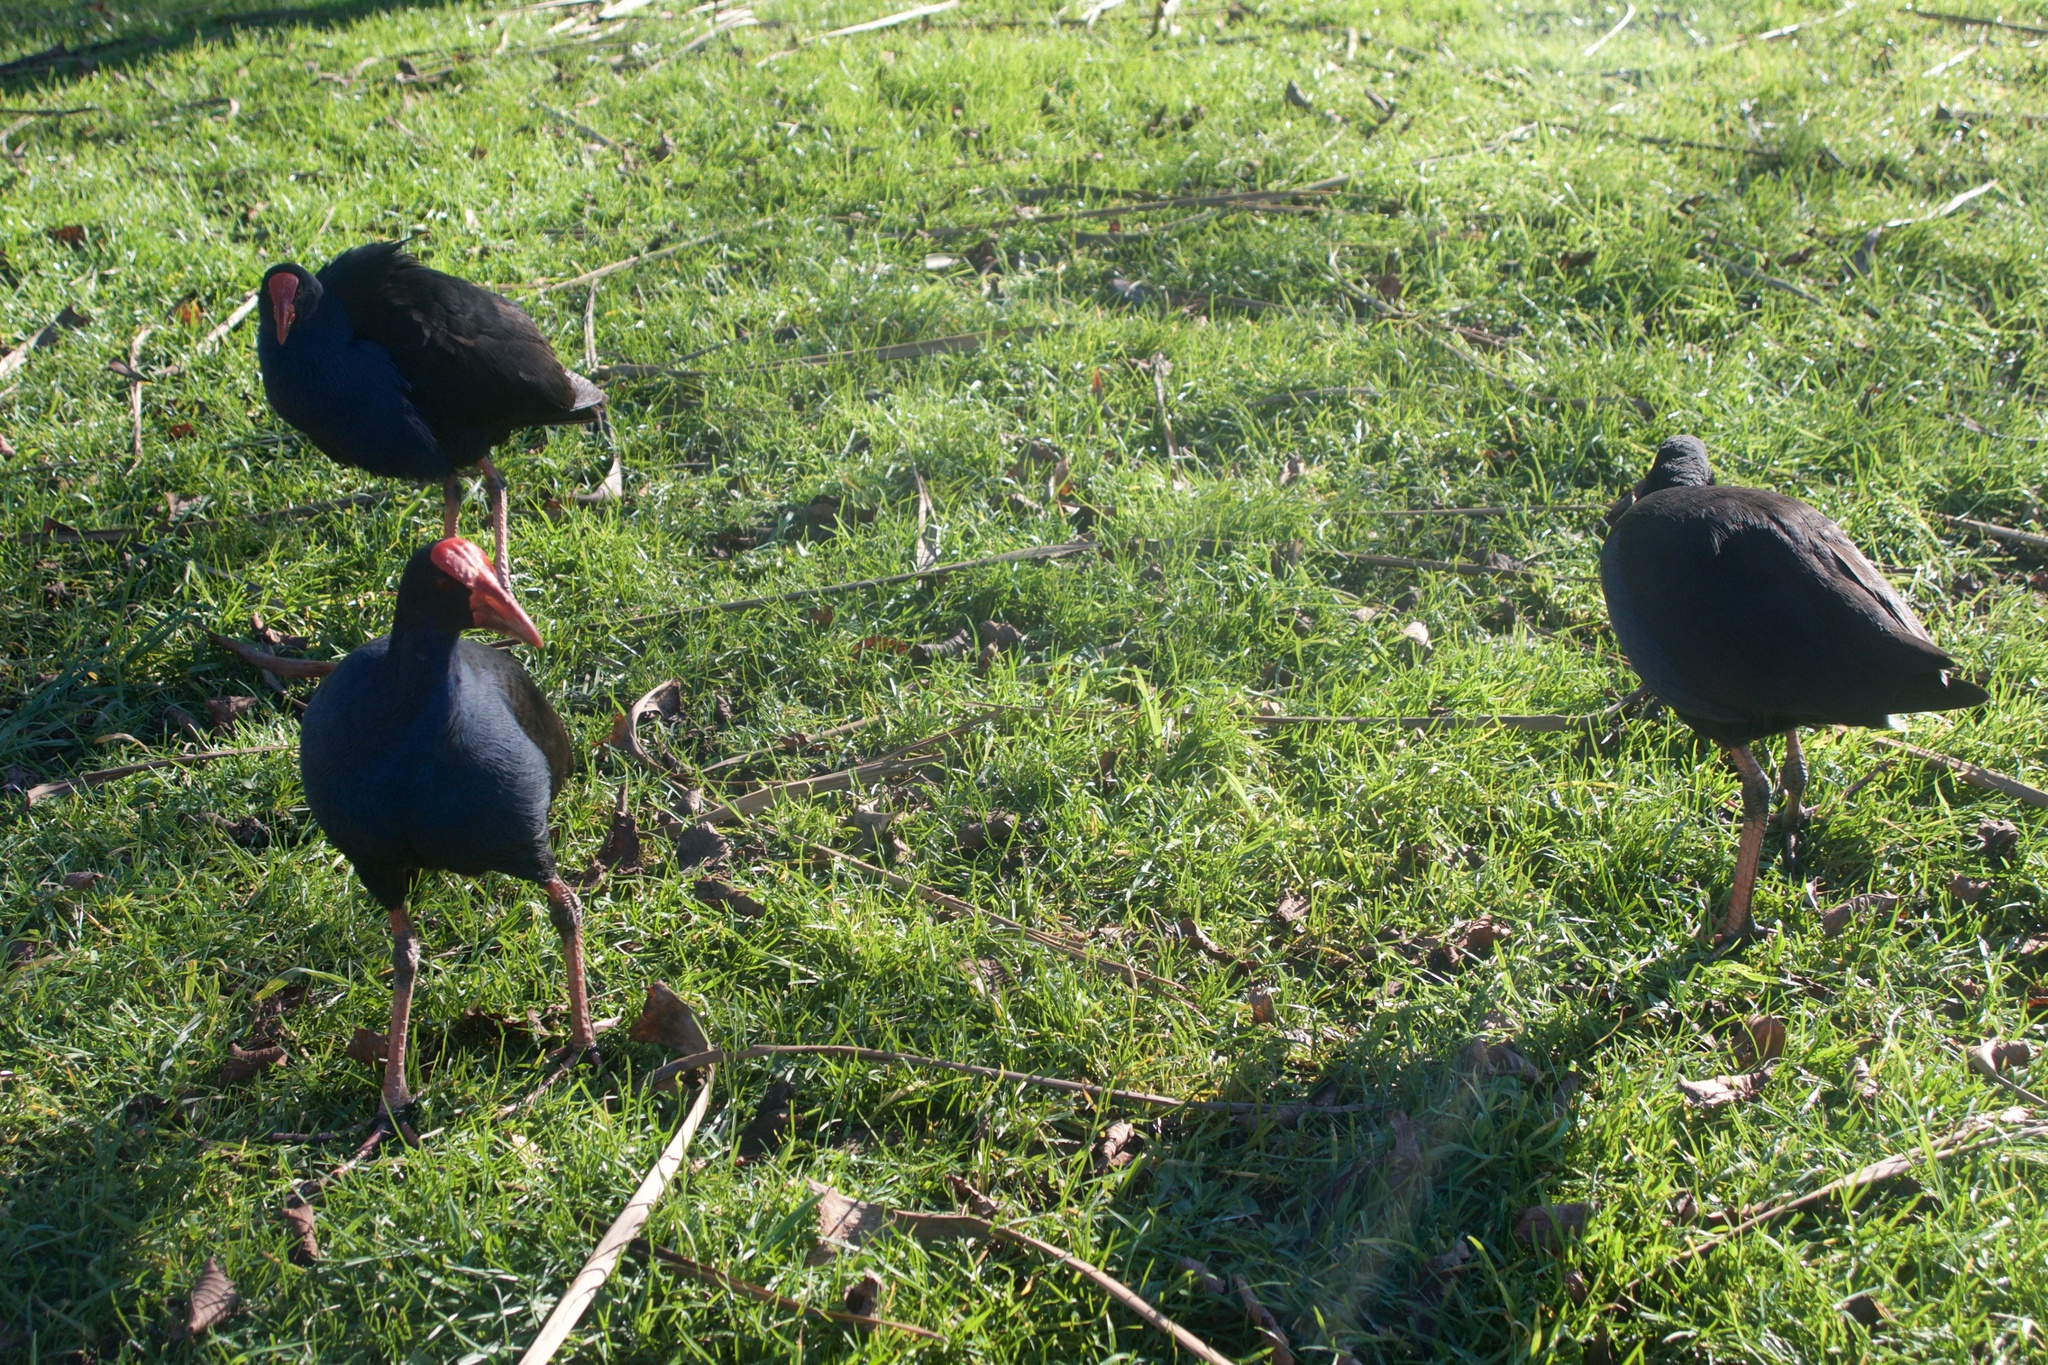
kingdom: Animalia
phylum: Chordata
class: Aves
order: Gruiformes
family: Rallidae
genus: Porphyrio
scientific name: Porphyrio melanotus
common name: Australasian swamphen
